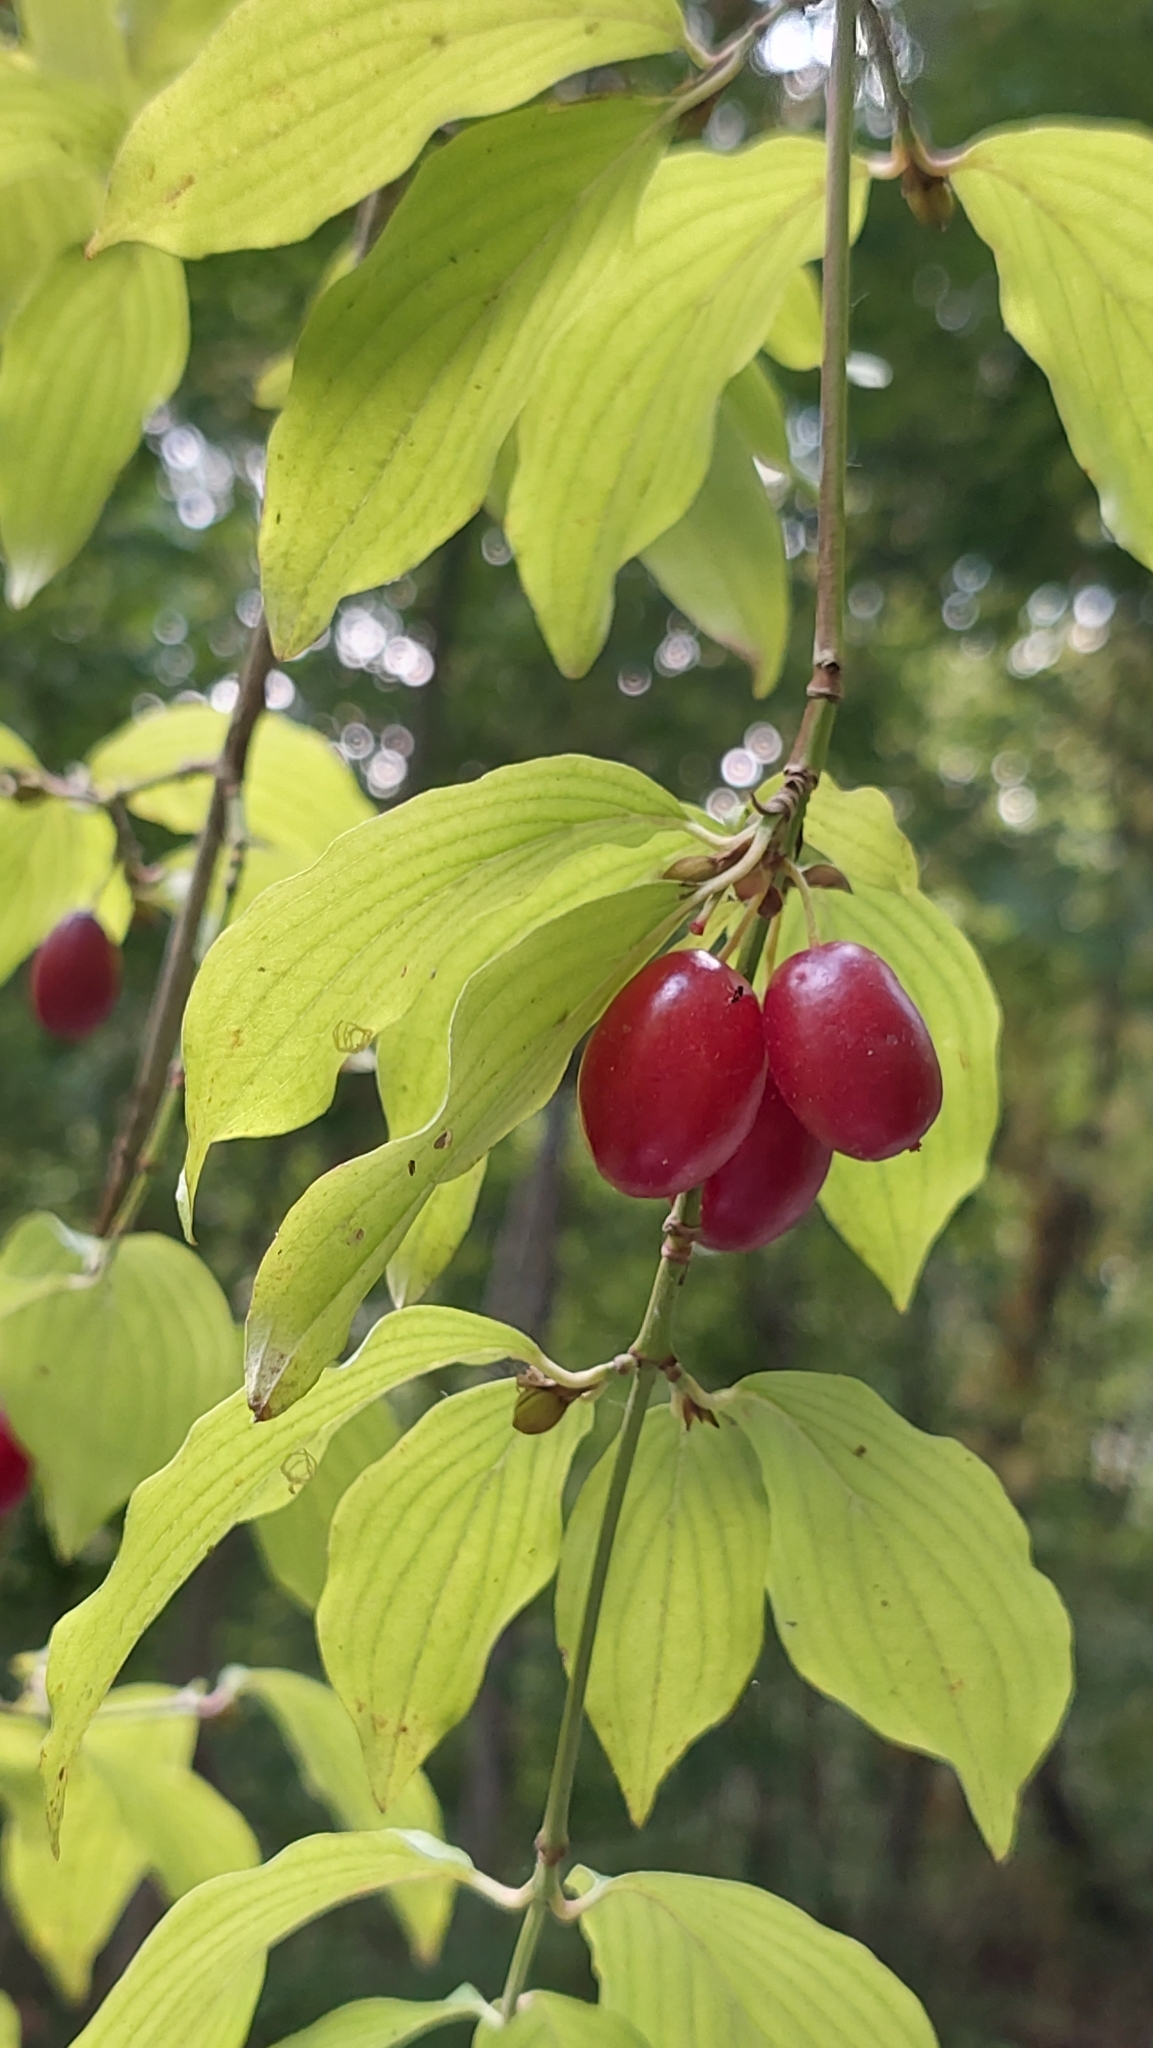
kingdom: Plantae
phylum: Tracheophyta
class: Magnoliopsida
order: Cornales
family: Cornaceae
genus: Cornus
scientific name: Cornus mas
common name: Cornelian-cherry
